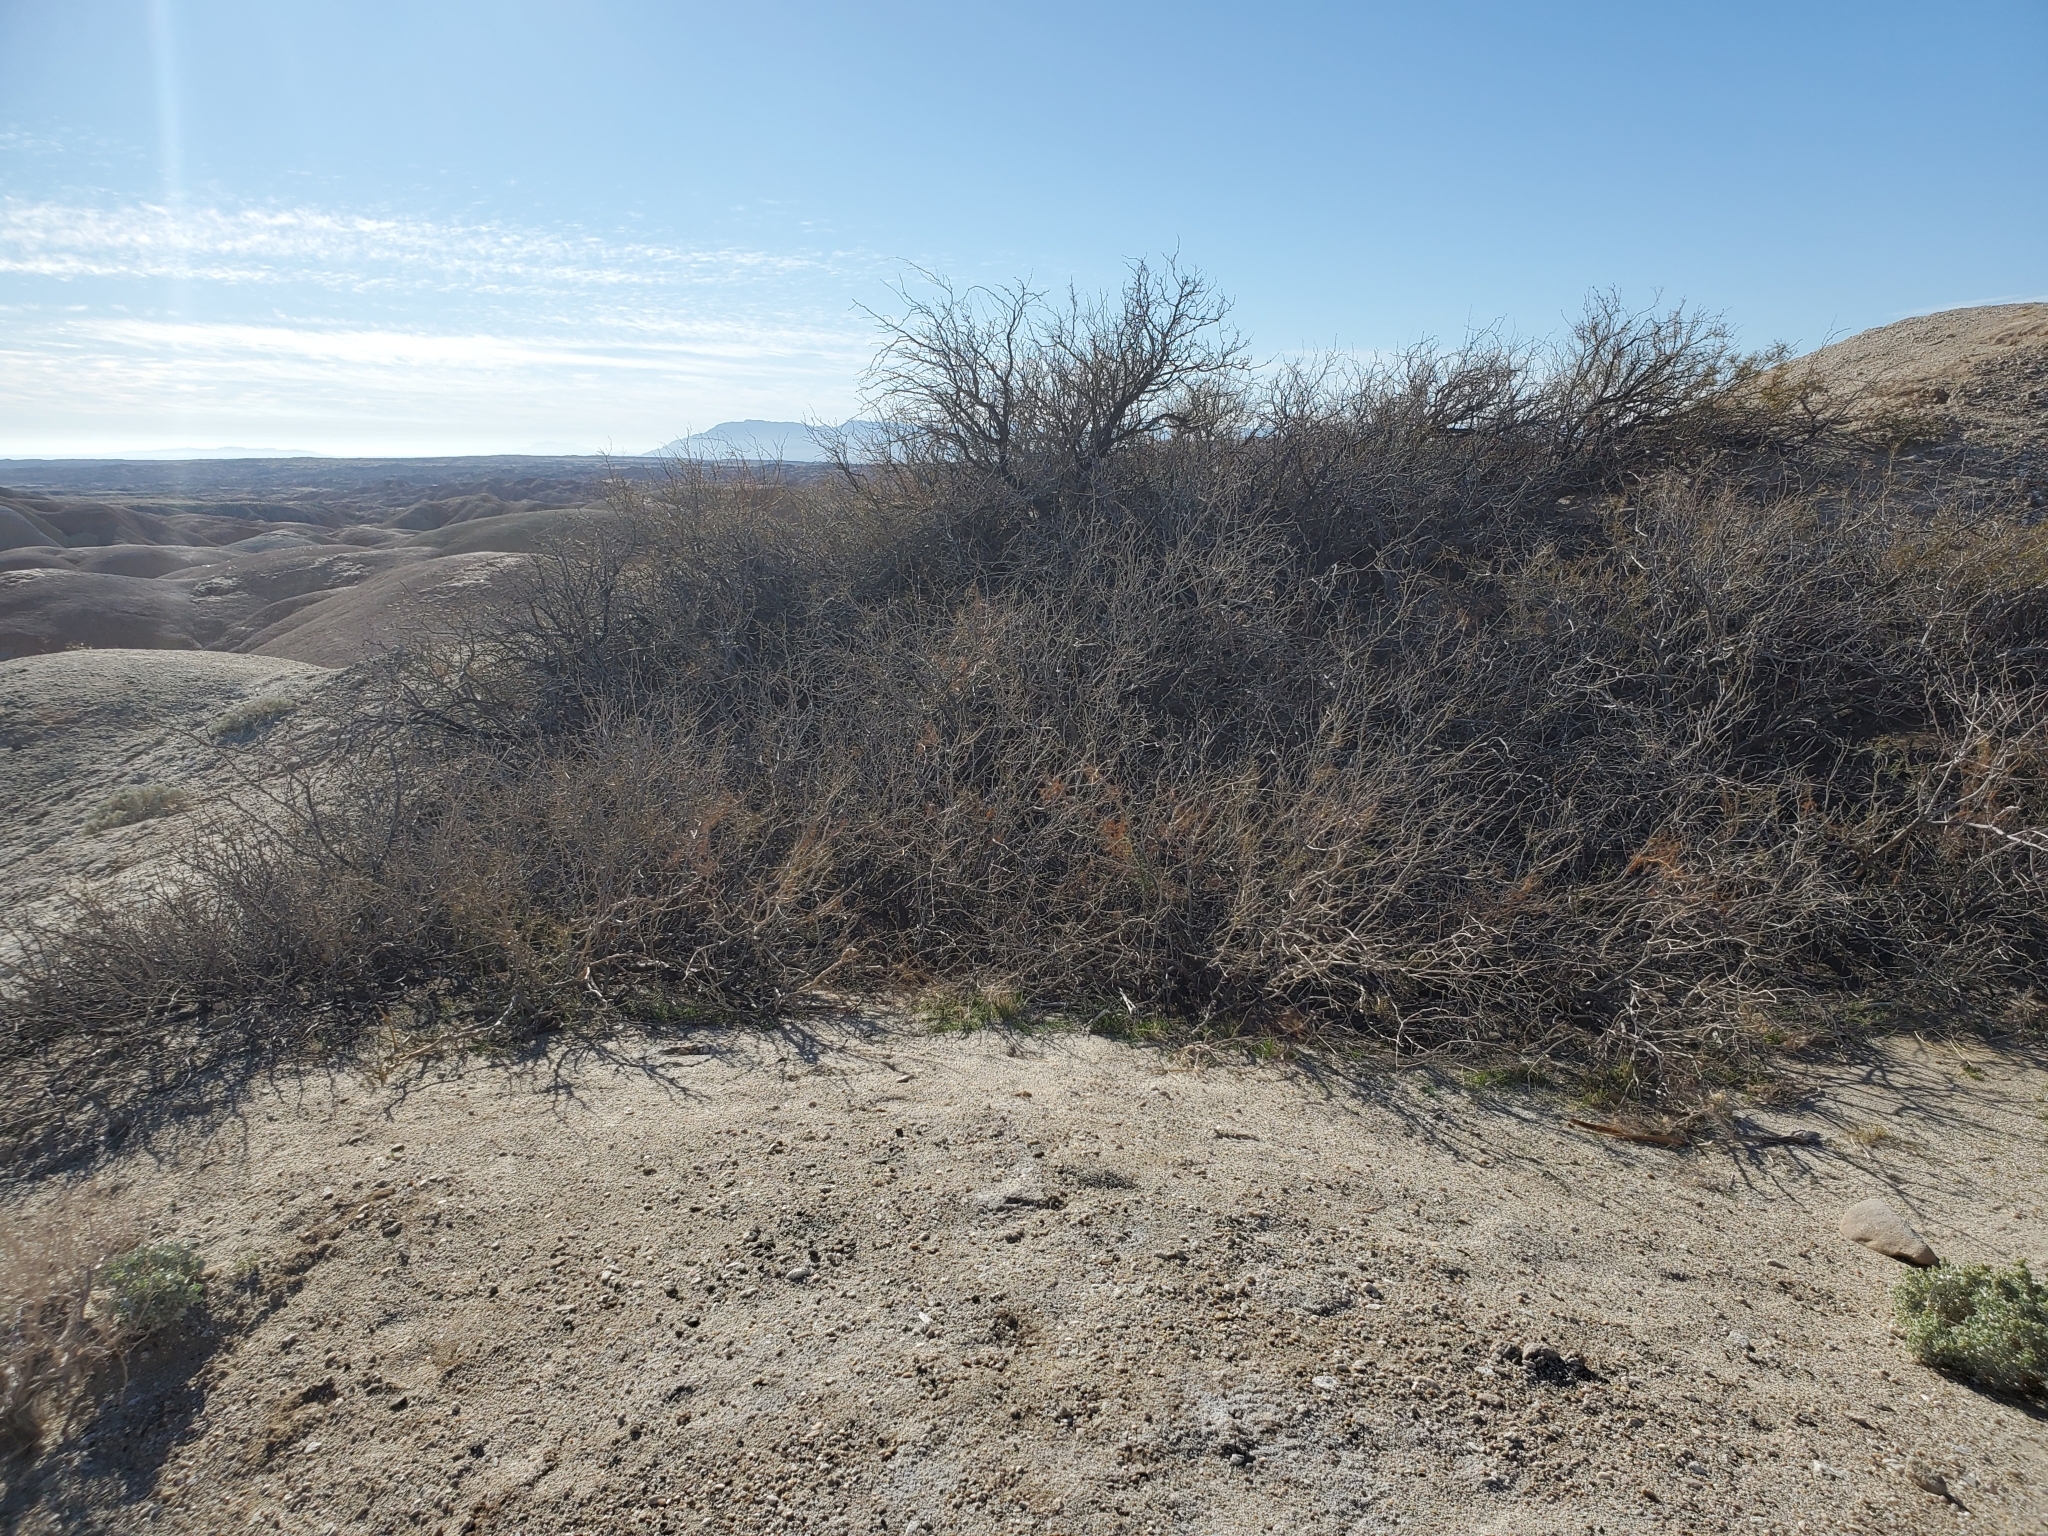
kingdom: Plantae
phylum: Tracheophyta
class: Magnoliopsida
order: Fabales
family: Fabaceae
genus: Prosopis
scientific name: Prosopis pubescens
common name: Screw-bean
